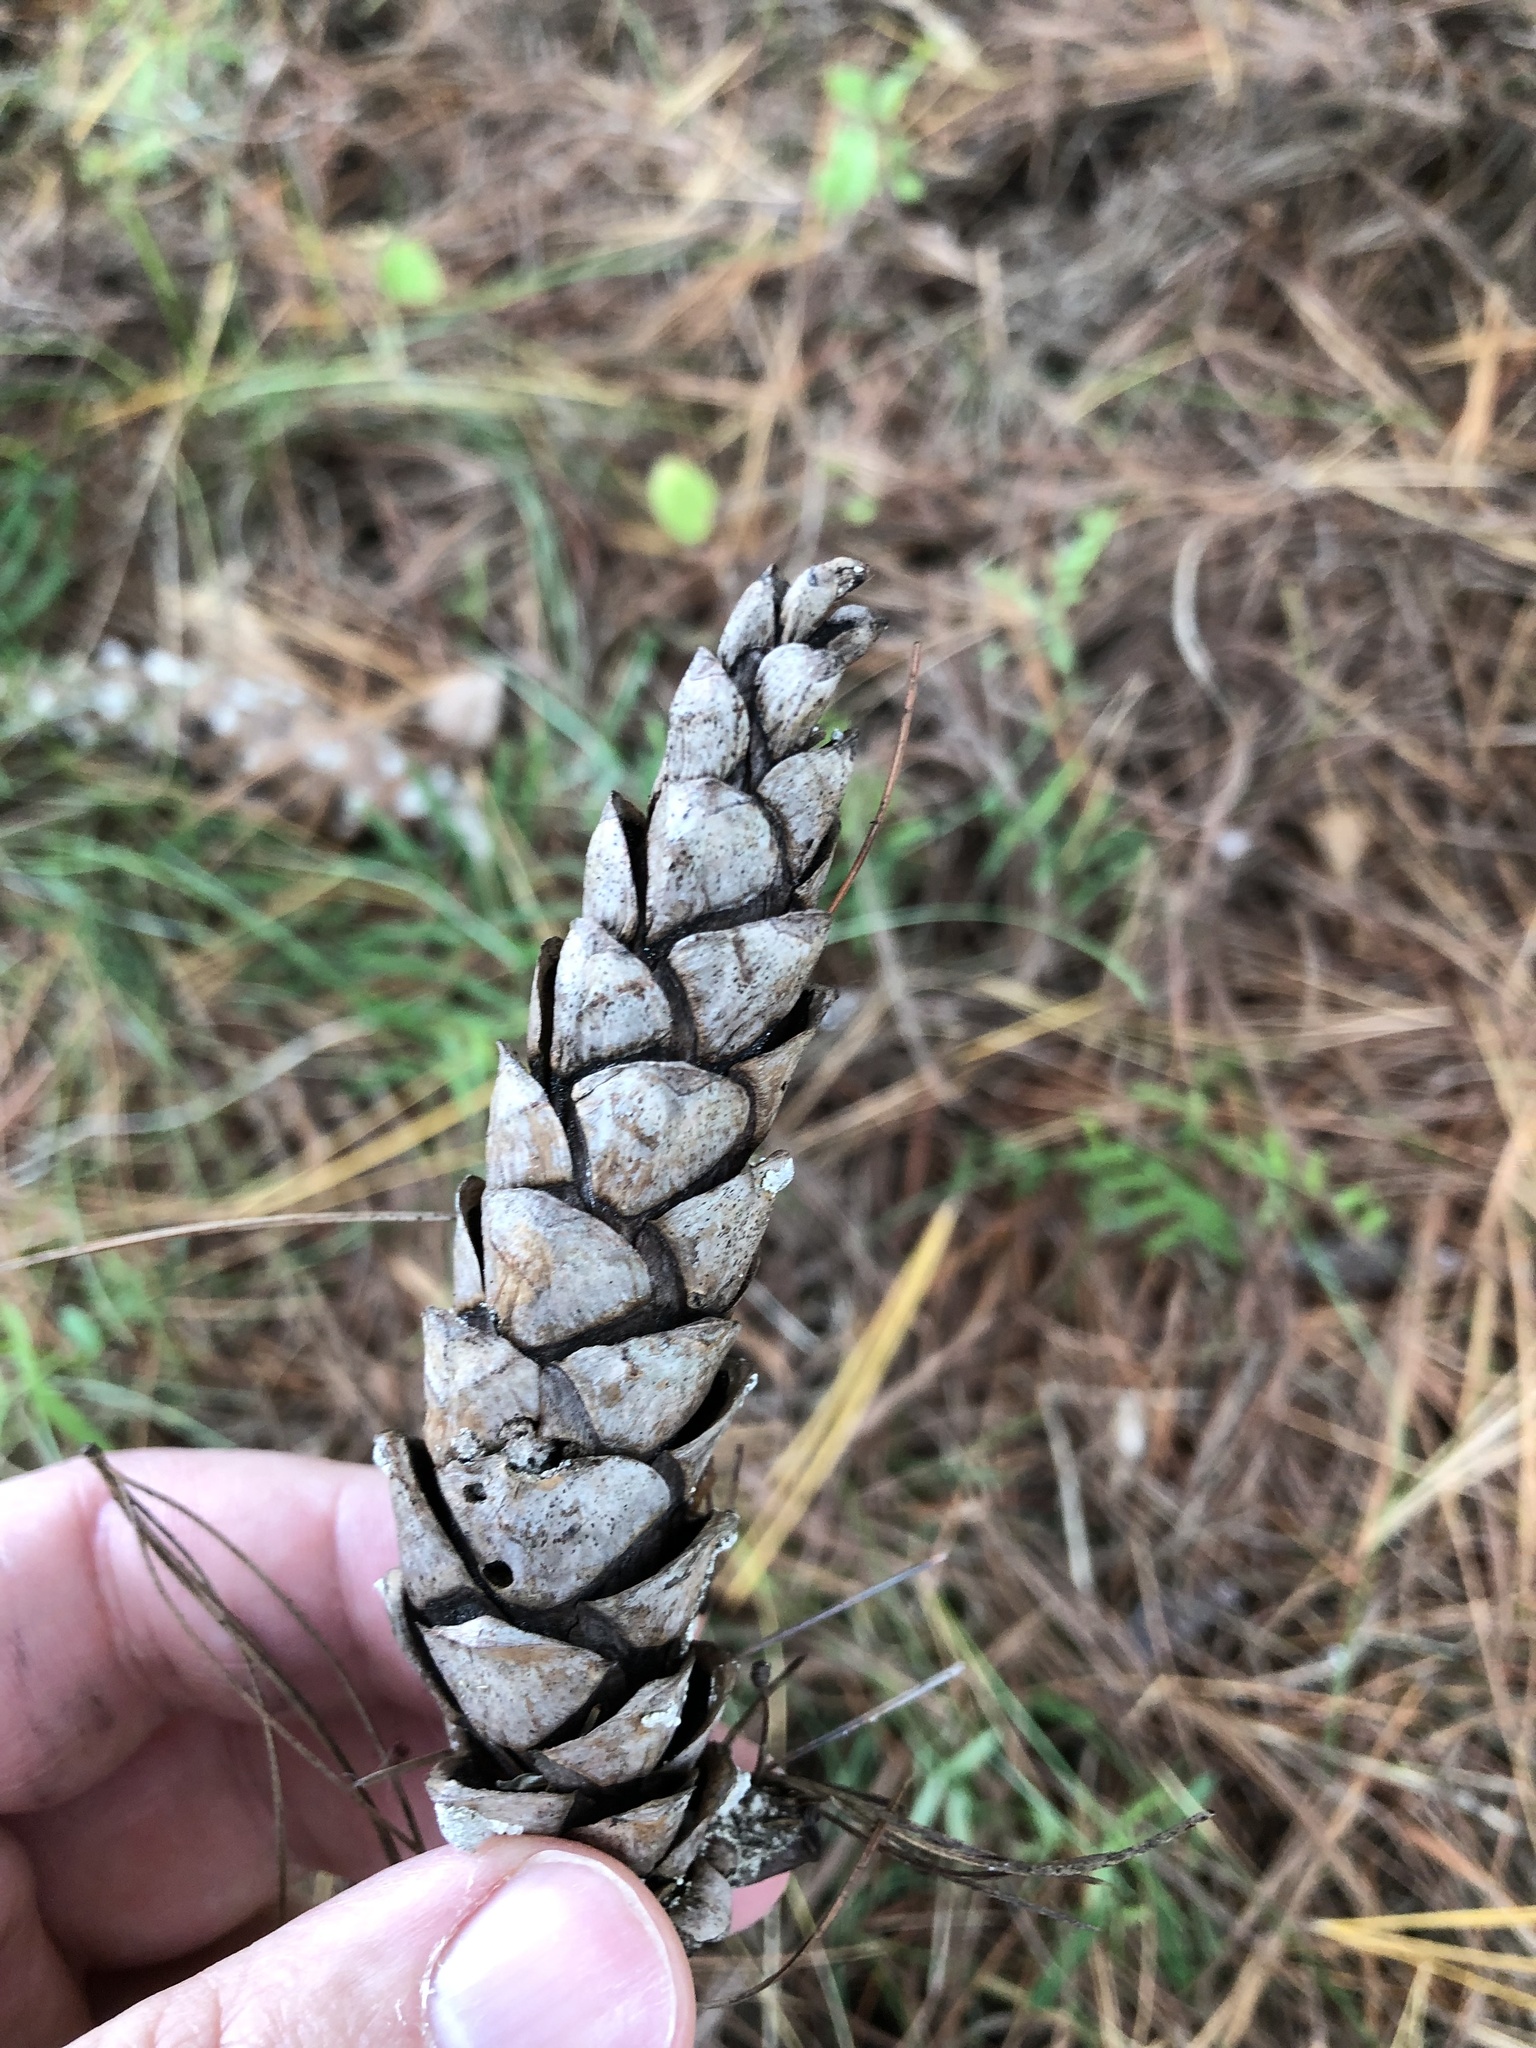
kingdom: Plantae
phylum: Tracheophyta
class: Pinopsida
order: Pinales
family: Pinaceae
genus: Pinus
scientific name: Pinus strobus
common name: Weymouth pine
